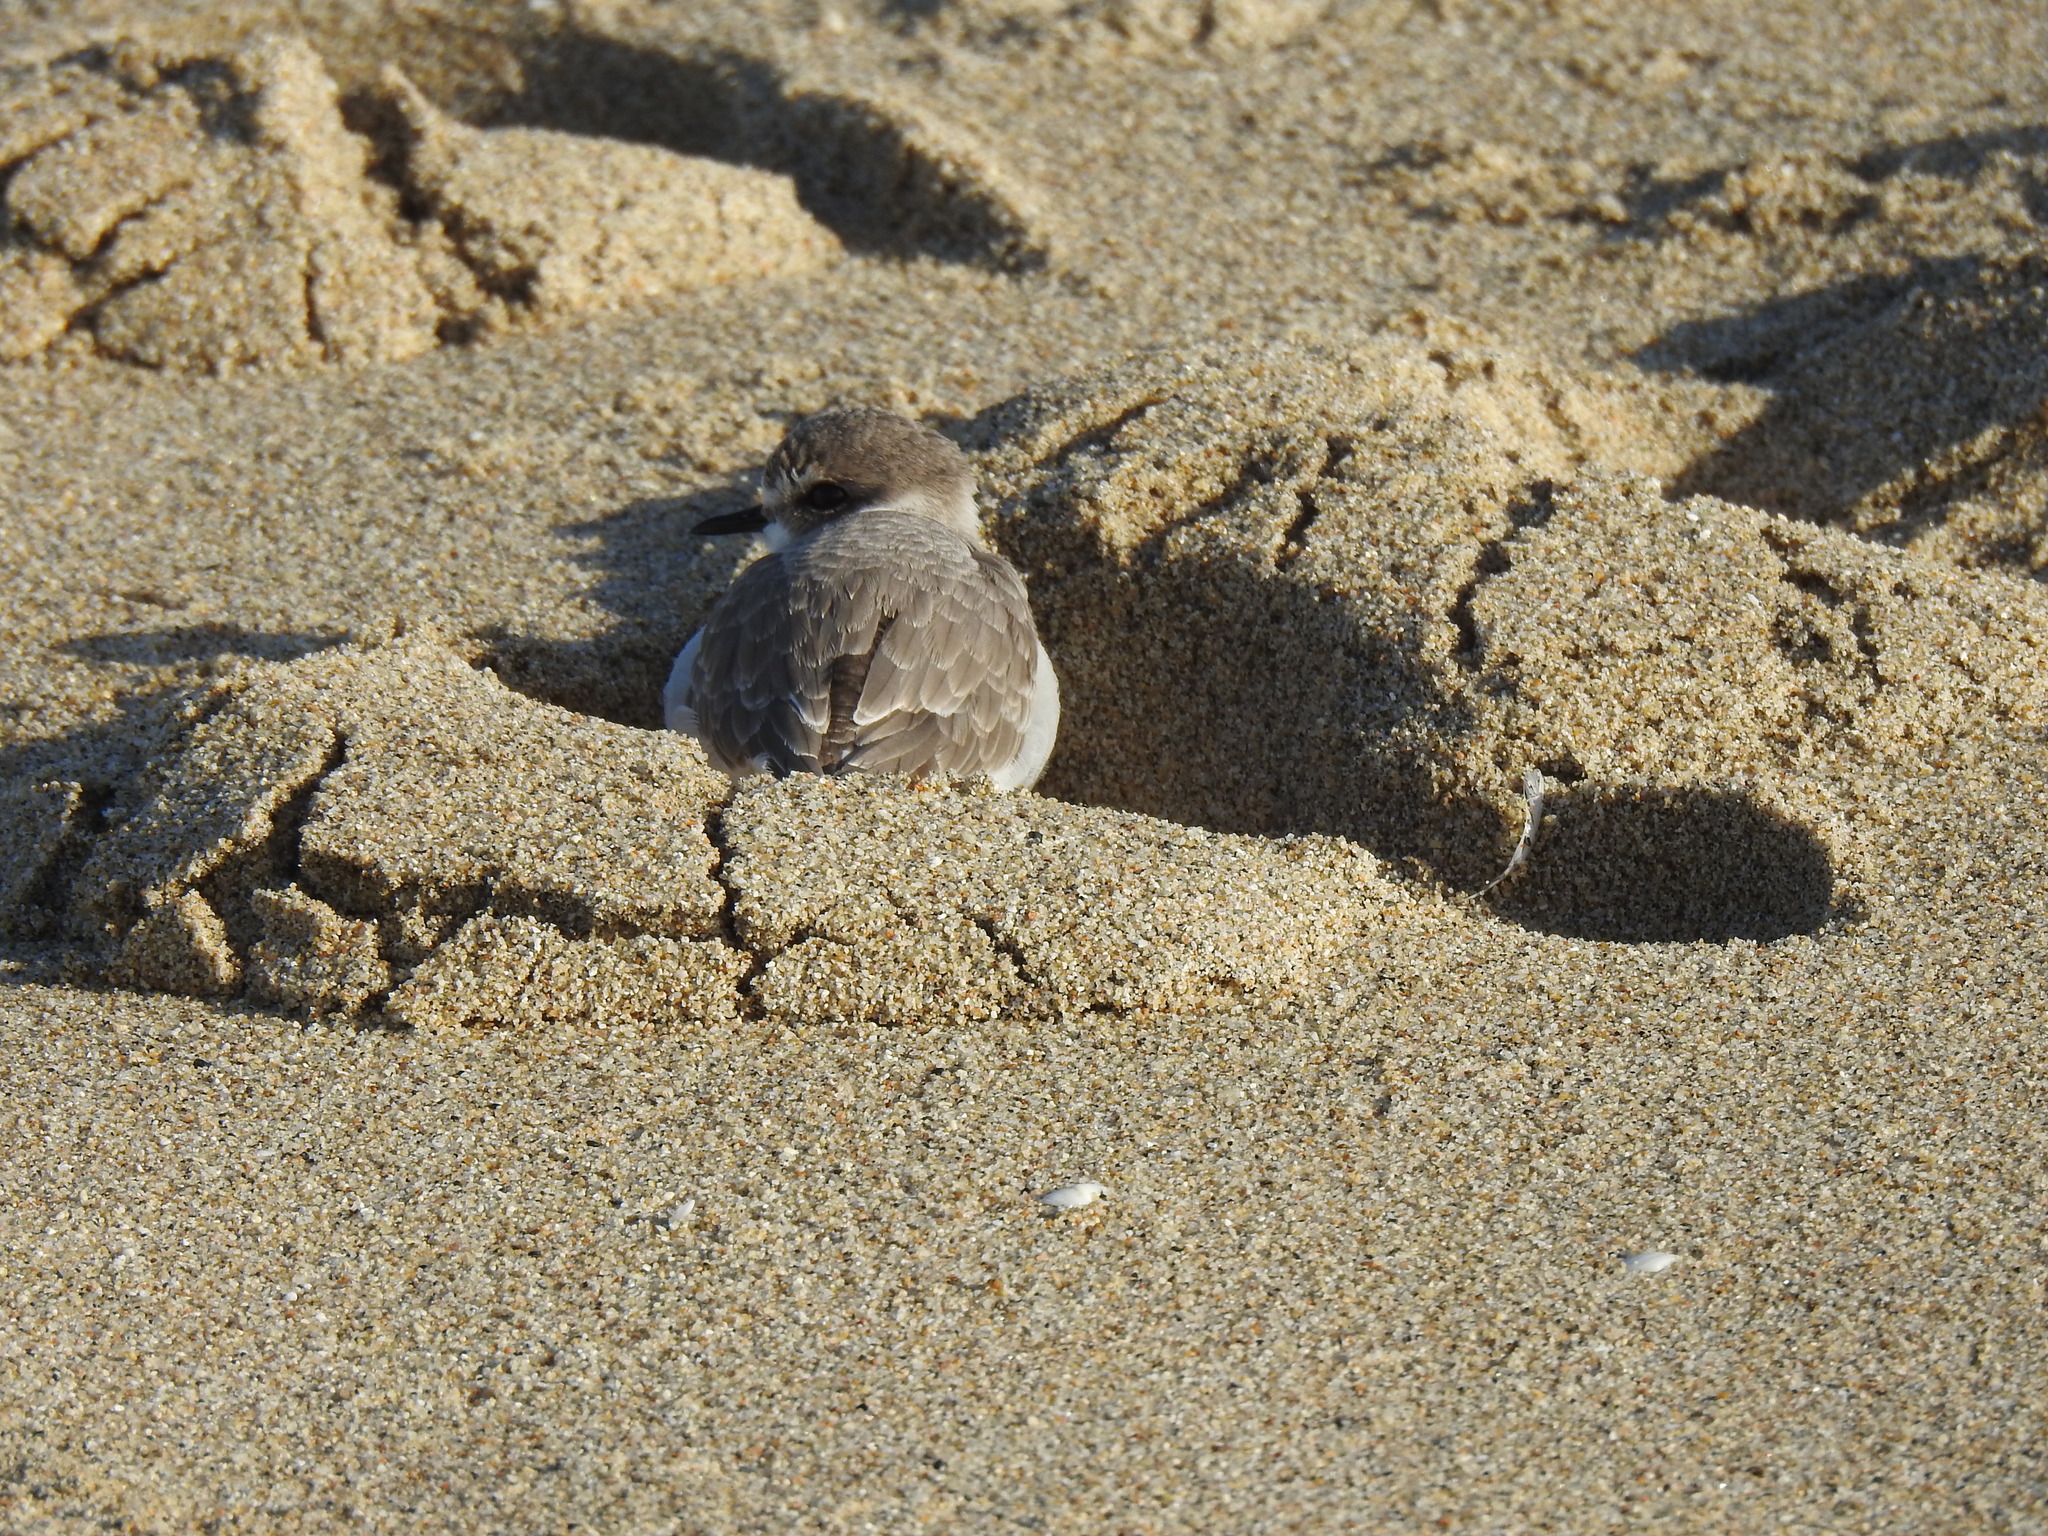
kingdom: Animalia
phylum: Chordata
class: Aves
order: Charadriiformes
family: Charadriidae
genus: Anarhynchus
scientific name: Anarhynchus
